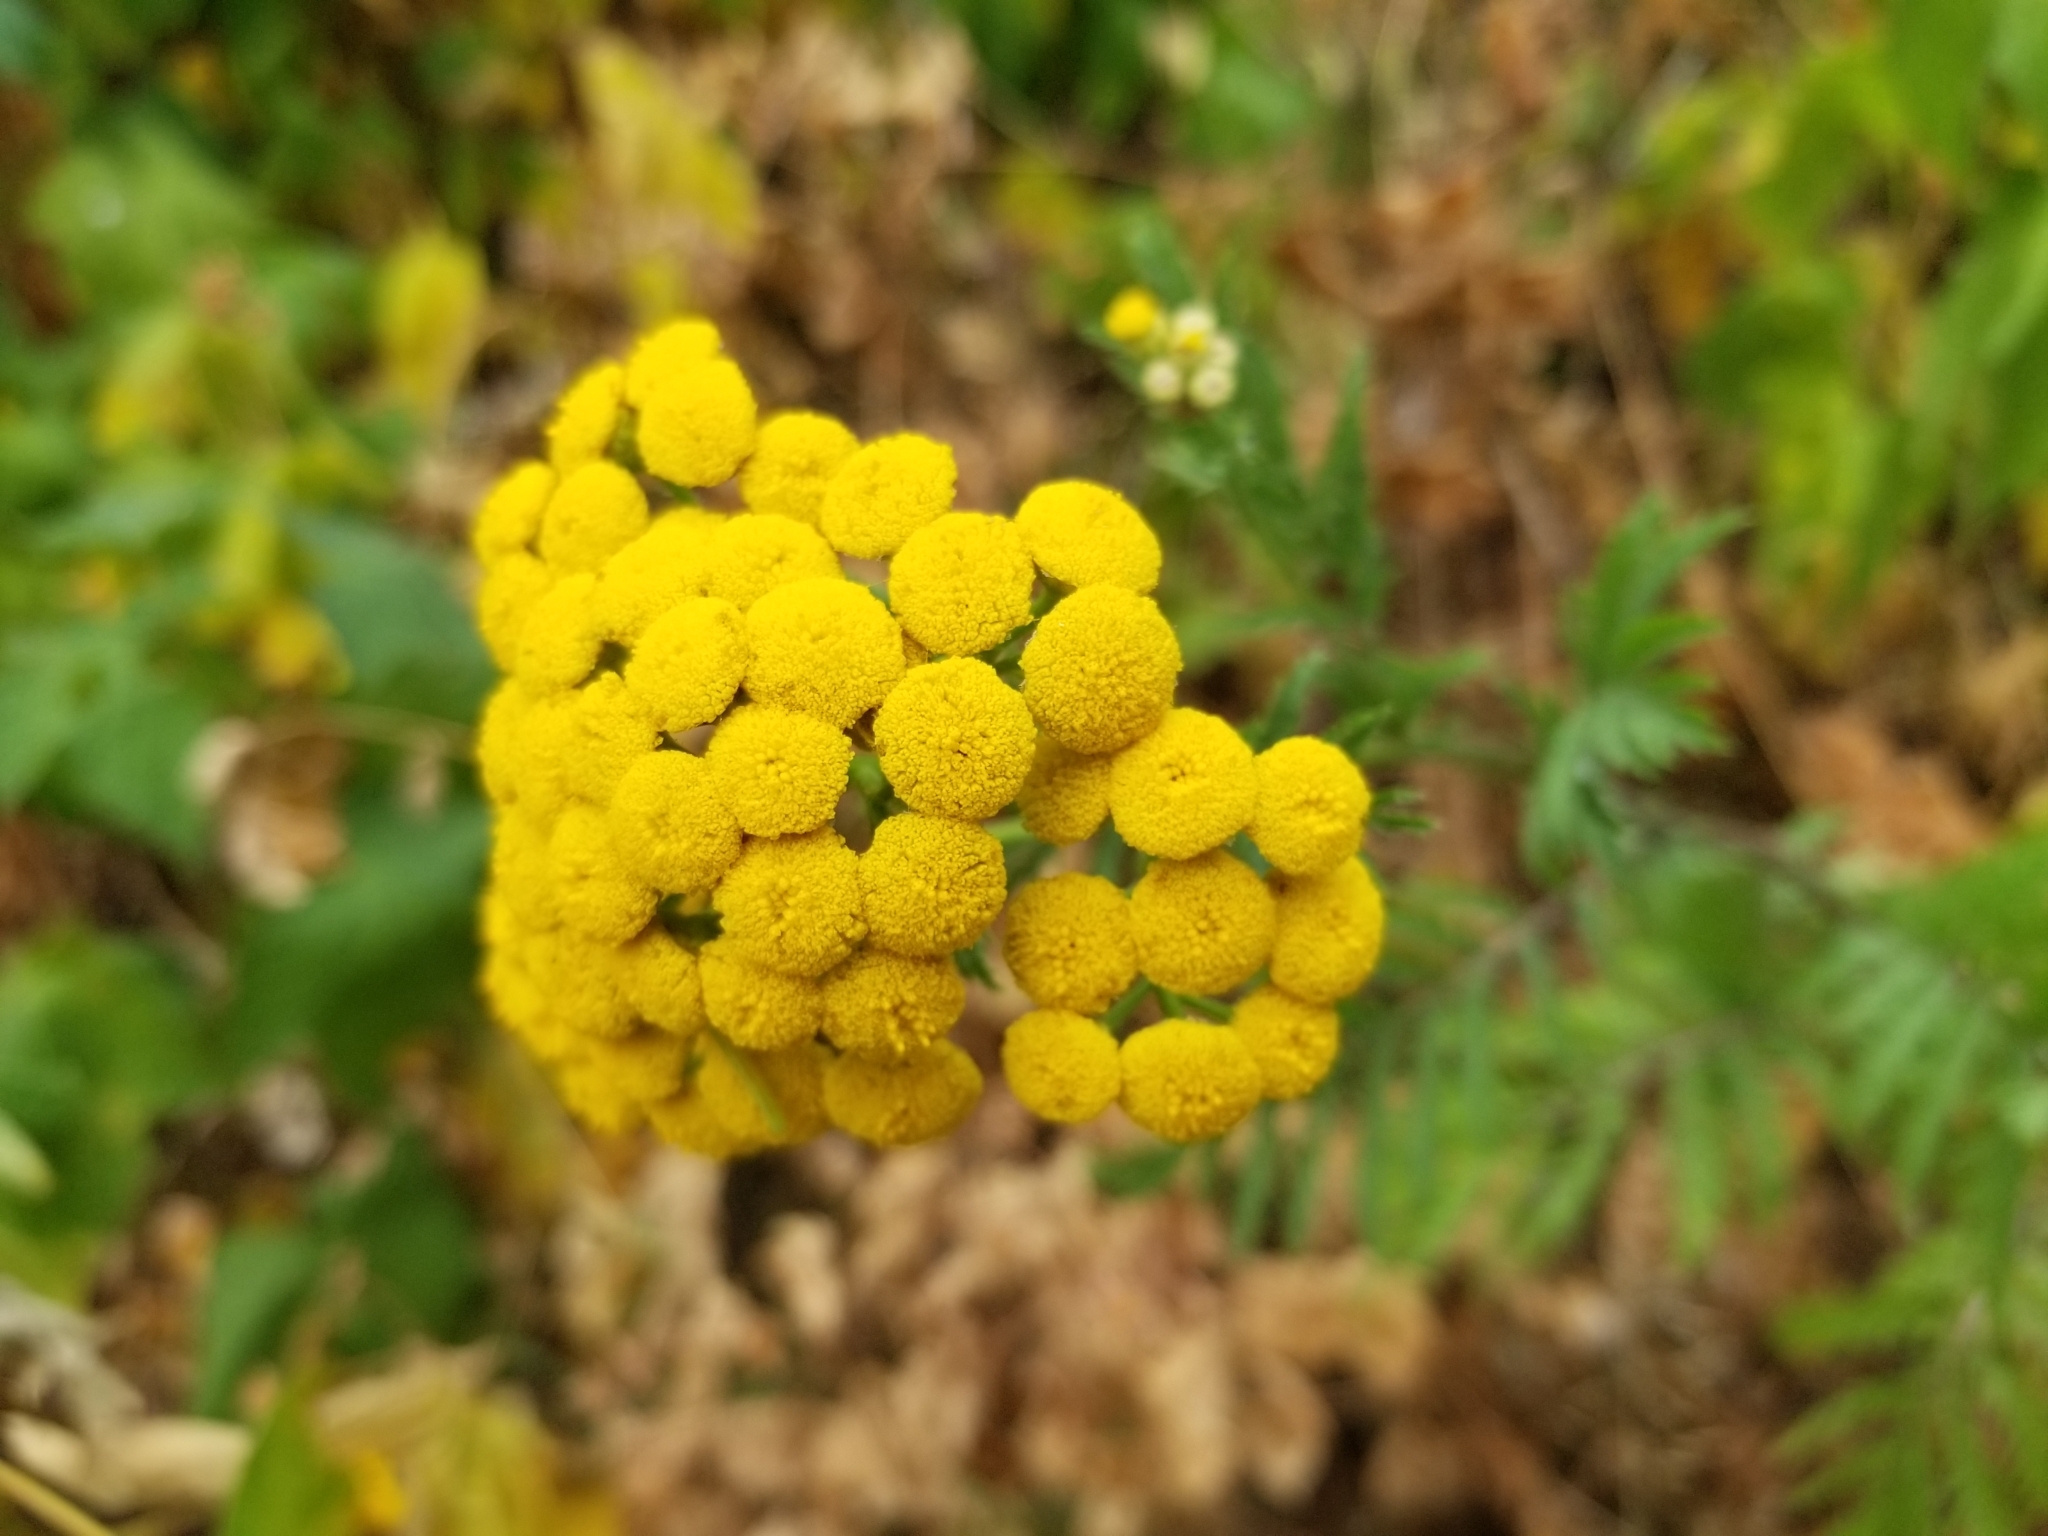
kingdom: Plantae
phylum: Tracheophyta
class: Magnoliopsida
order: Asterales
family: Asteraceae
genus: Tanacetum
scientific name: Tanacetum vulgare
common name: Common tansy
